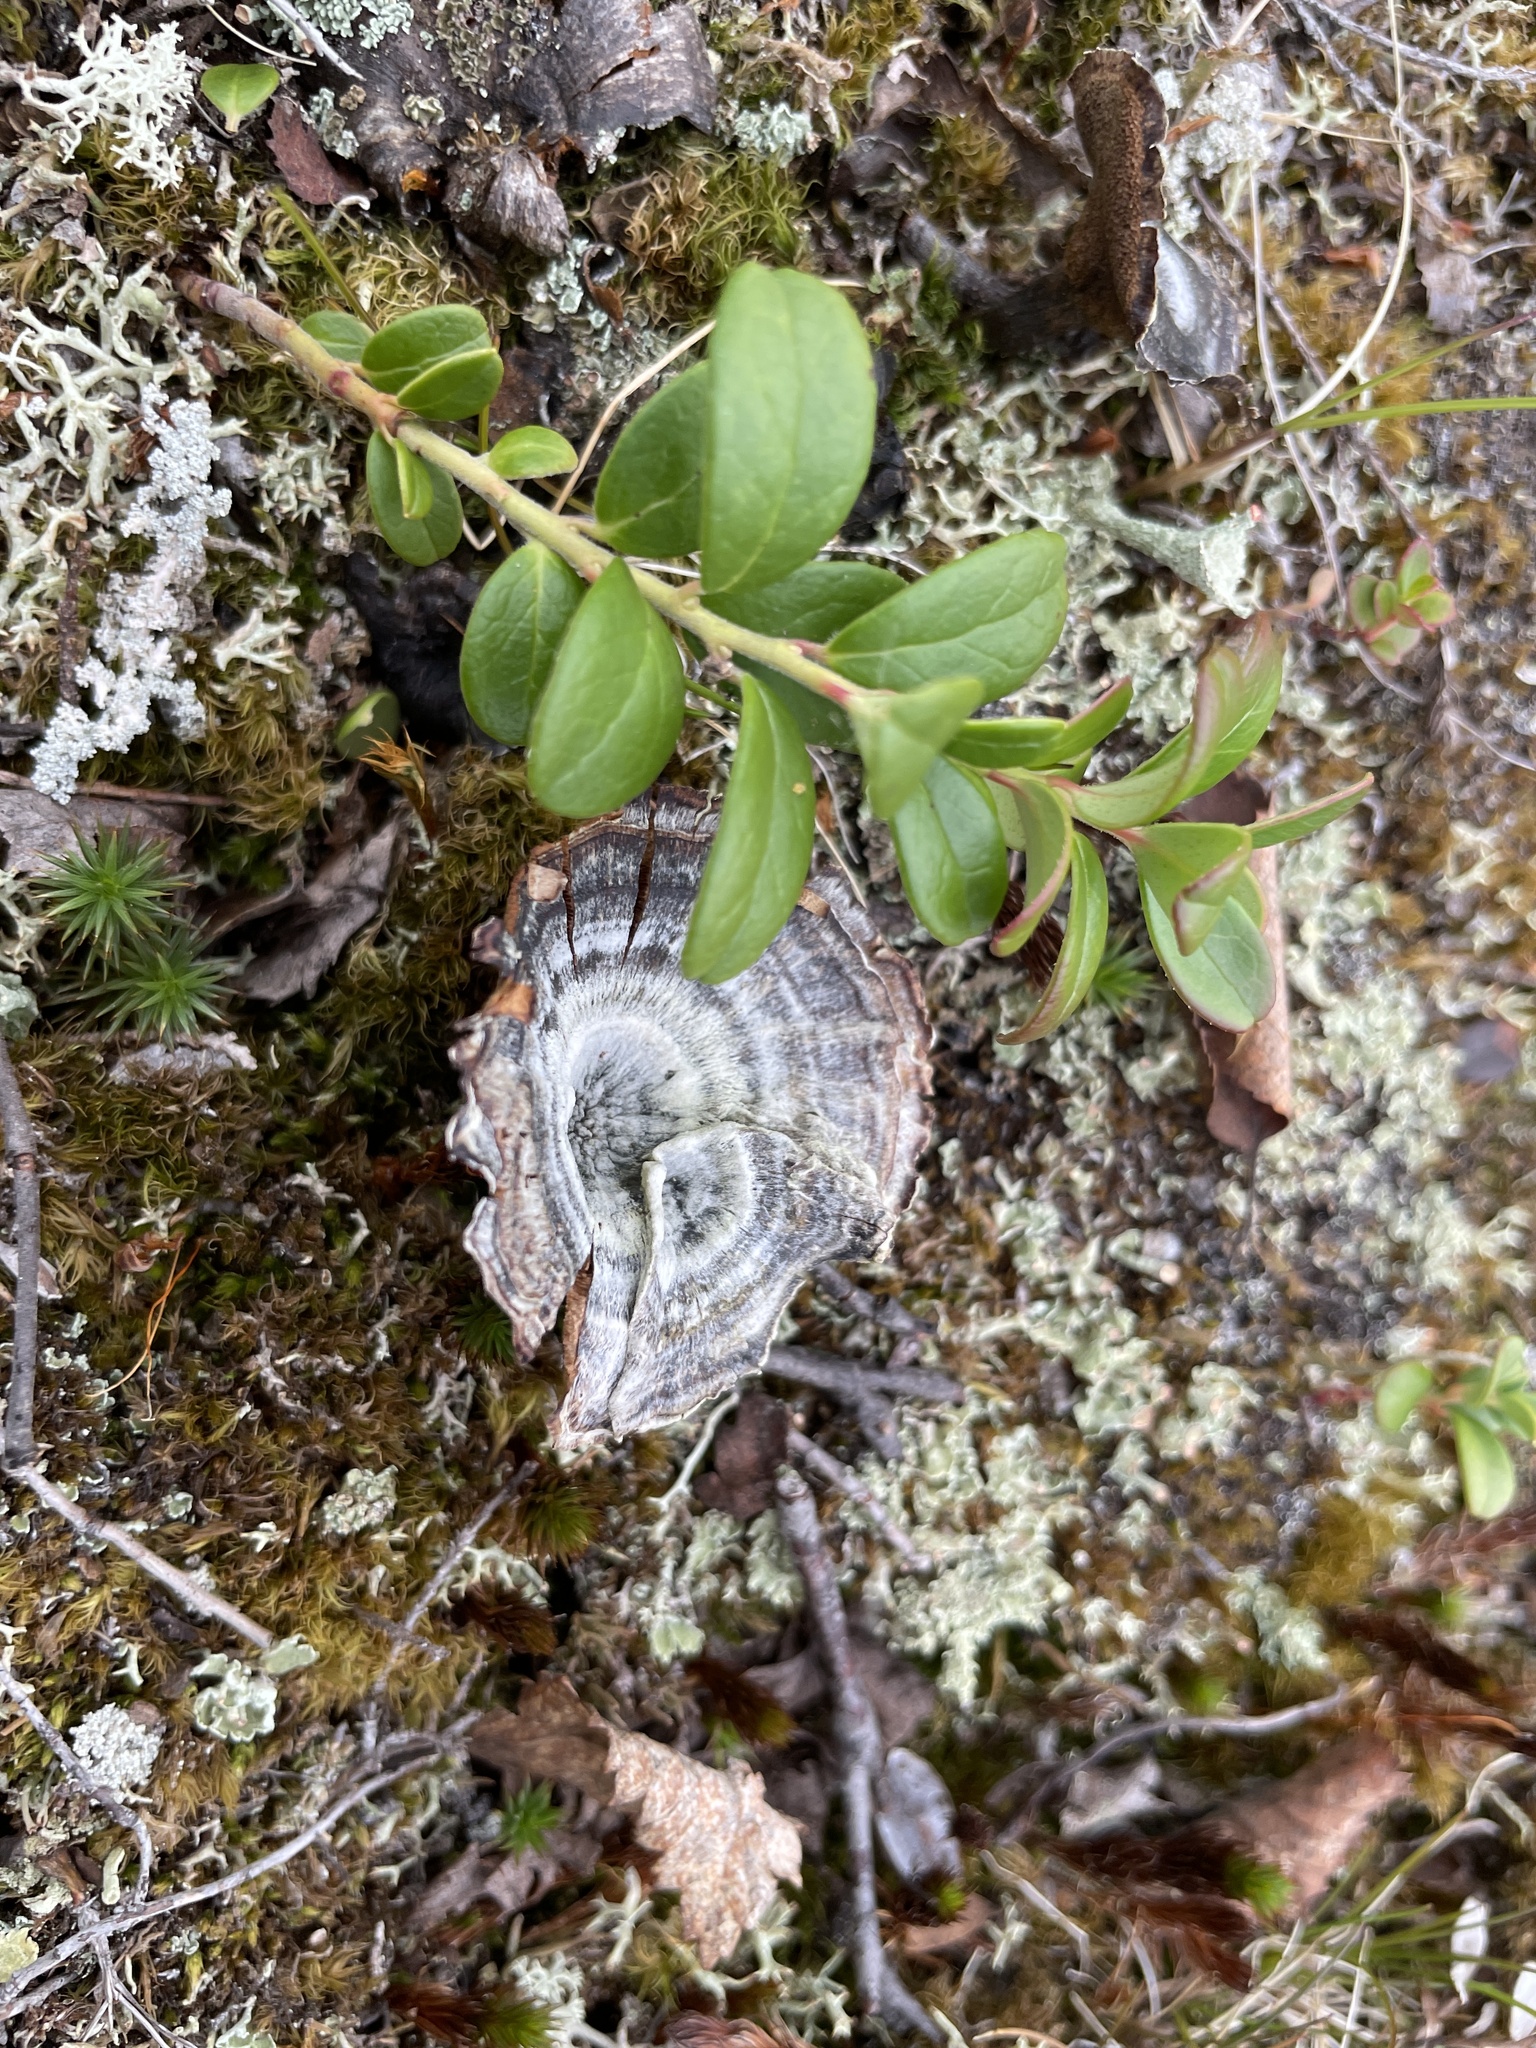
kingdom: Fungi
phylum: Basidiomycota
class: Agaricomycetes
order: Hymenochaetales
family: Hymenochaetaceae
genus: Coltricia
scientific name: Coltricia perennis
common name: Tiger's eye
